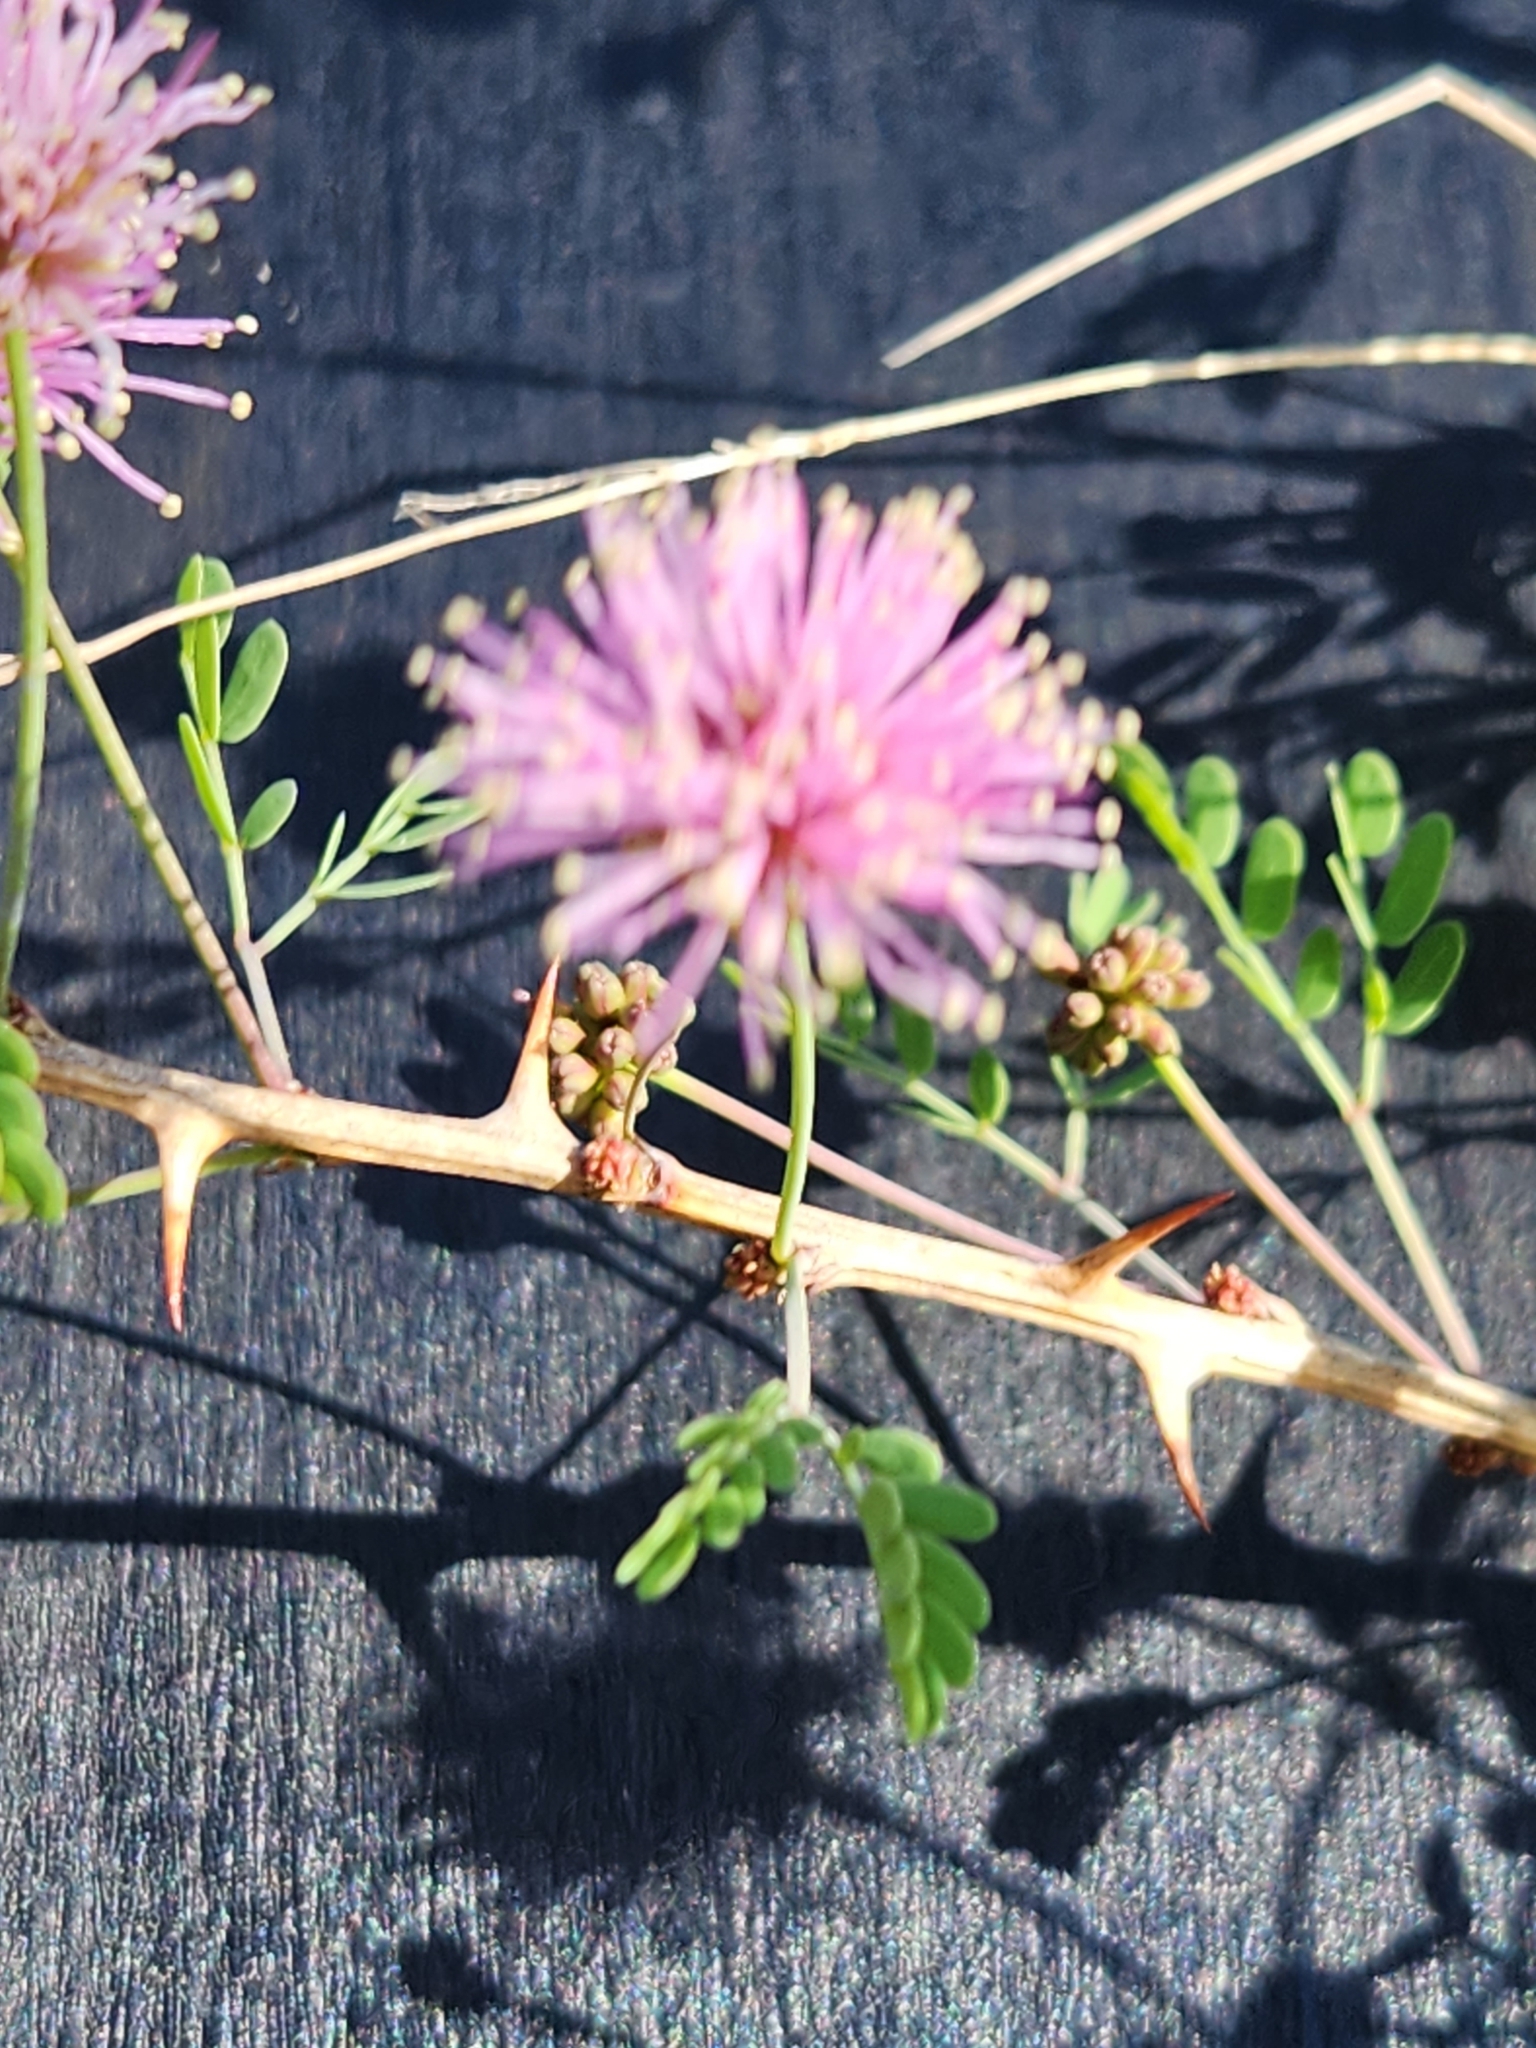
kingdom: Plantae
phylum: Tracheophyta
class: Magnoliopsida
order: Fabales
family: Fabaceae
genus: Mimosa
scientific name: Mimosa borealis
